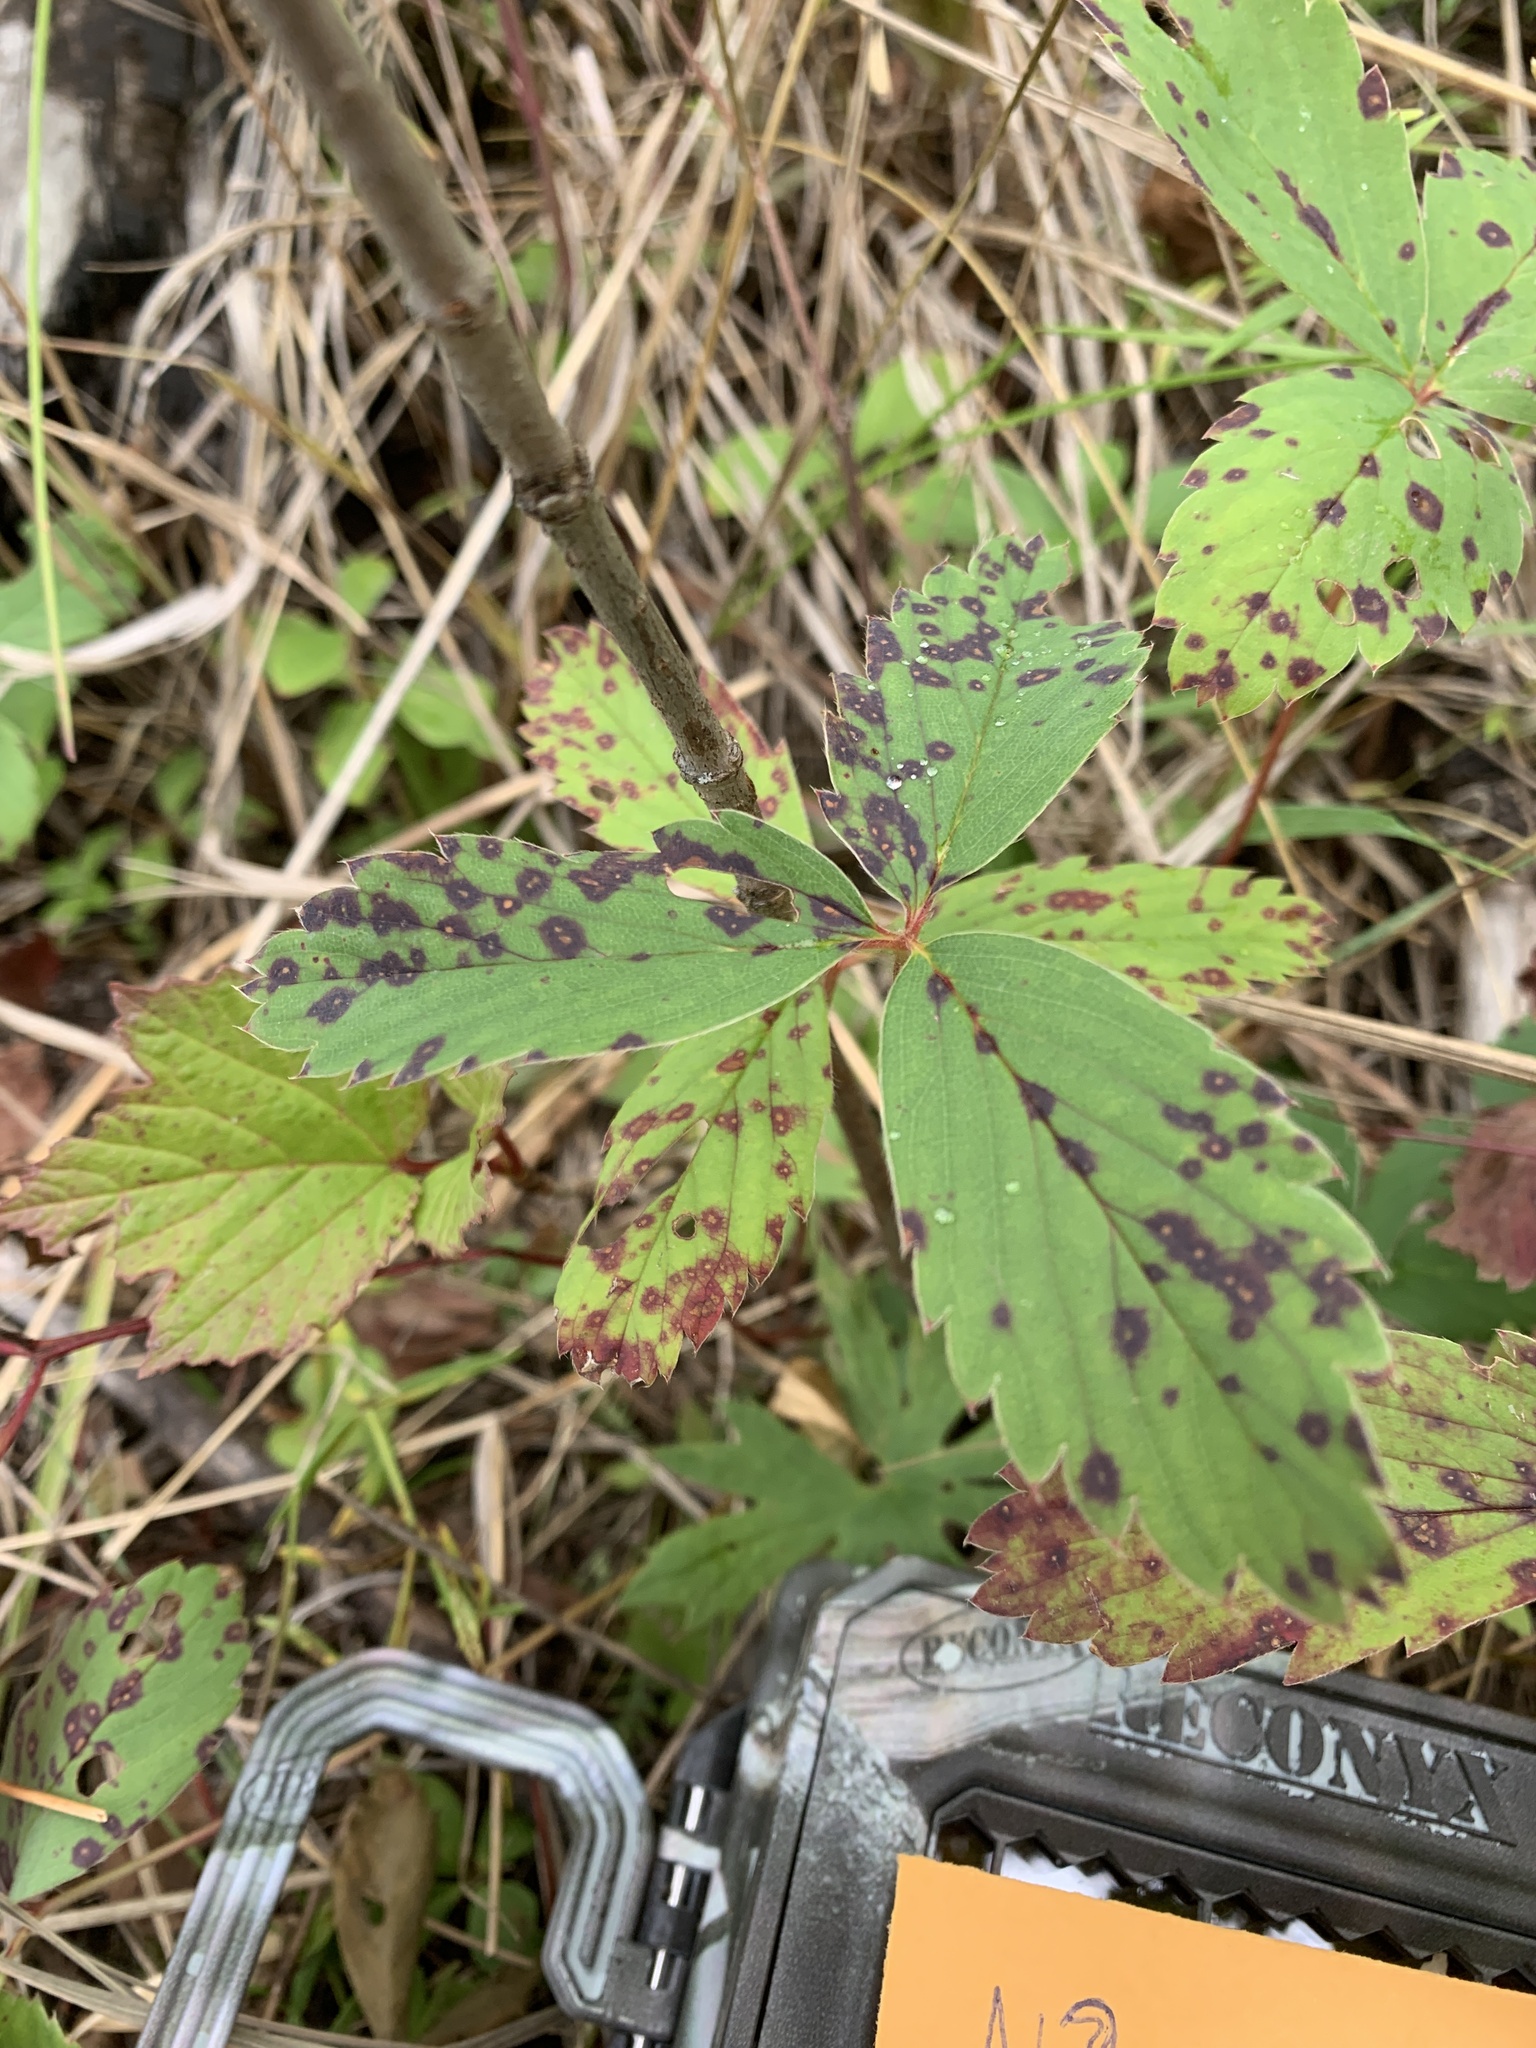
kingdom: Fungi
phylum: Ascomycota
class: Dothideomycetes
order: Mycosphaerellales
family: Mycosphaerellaceae
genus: Ramularia
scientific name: Ramularia grevilleana
